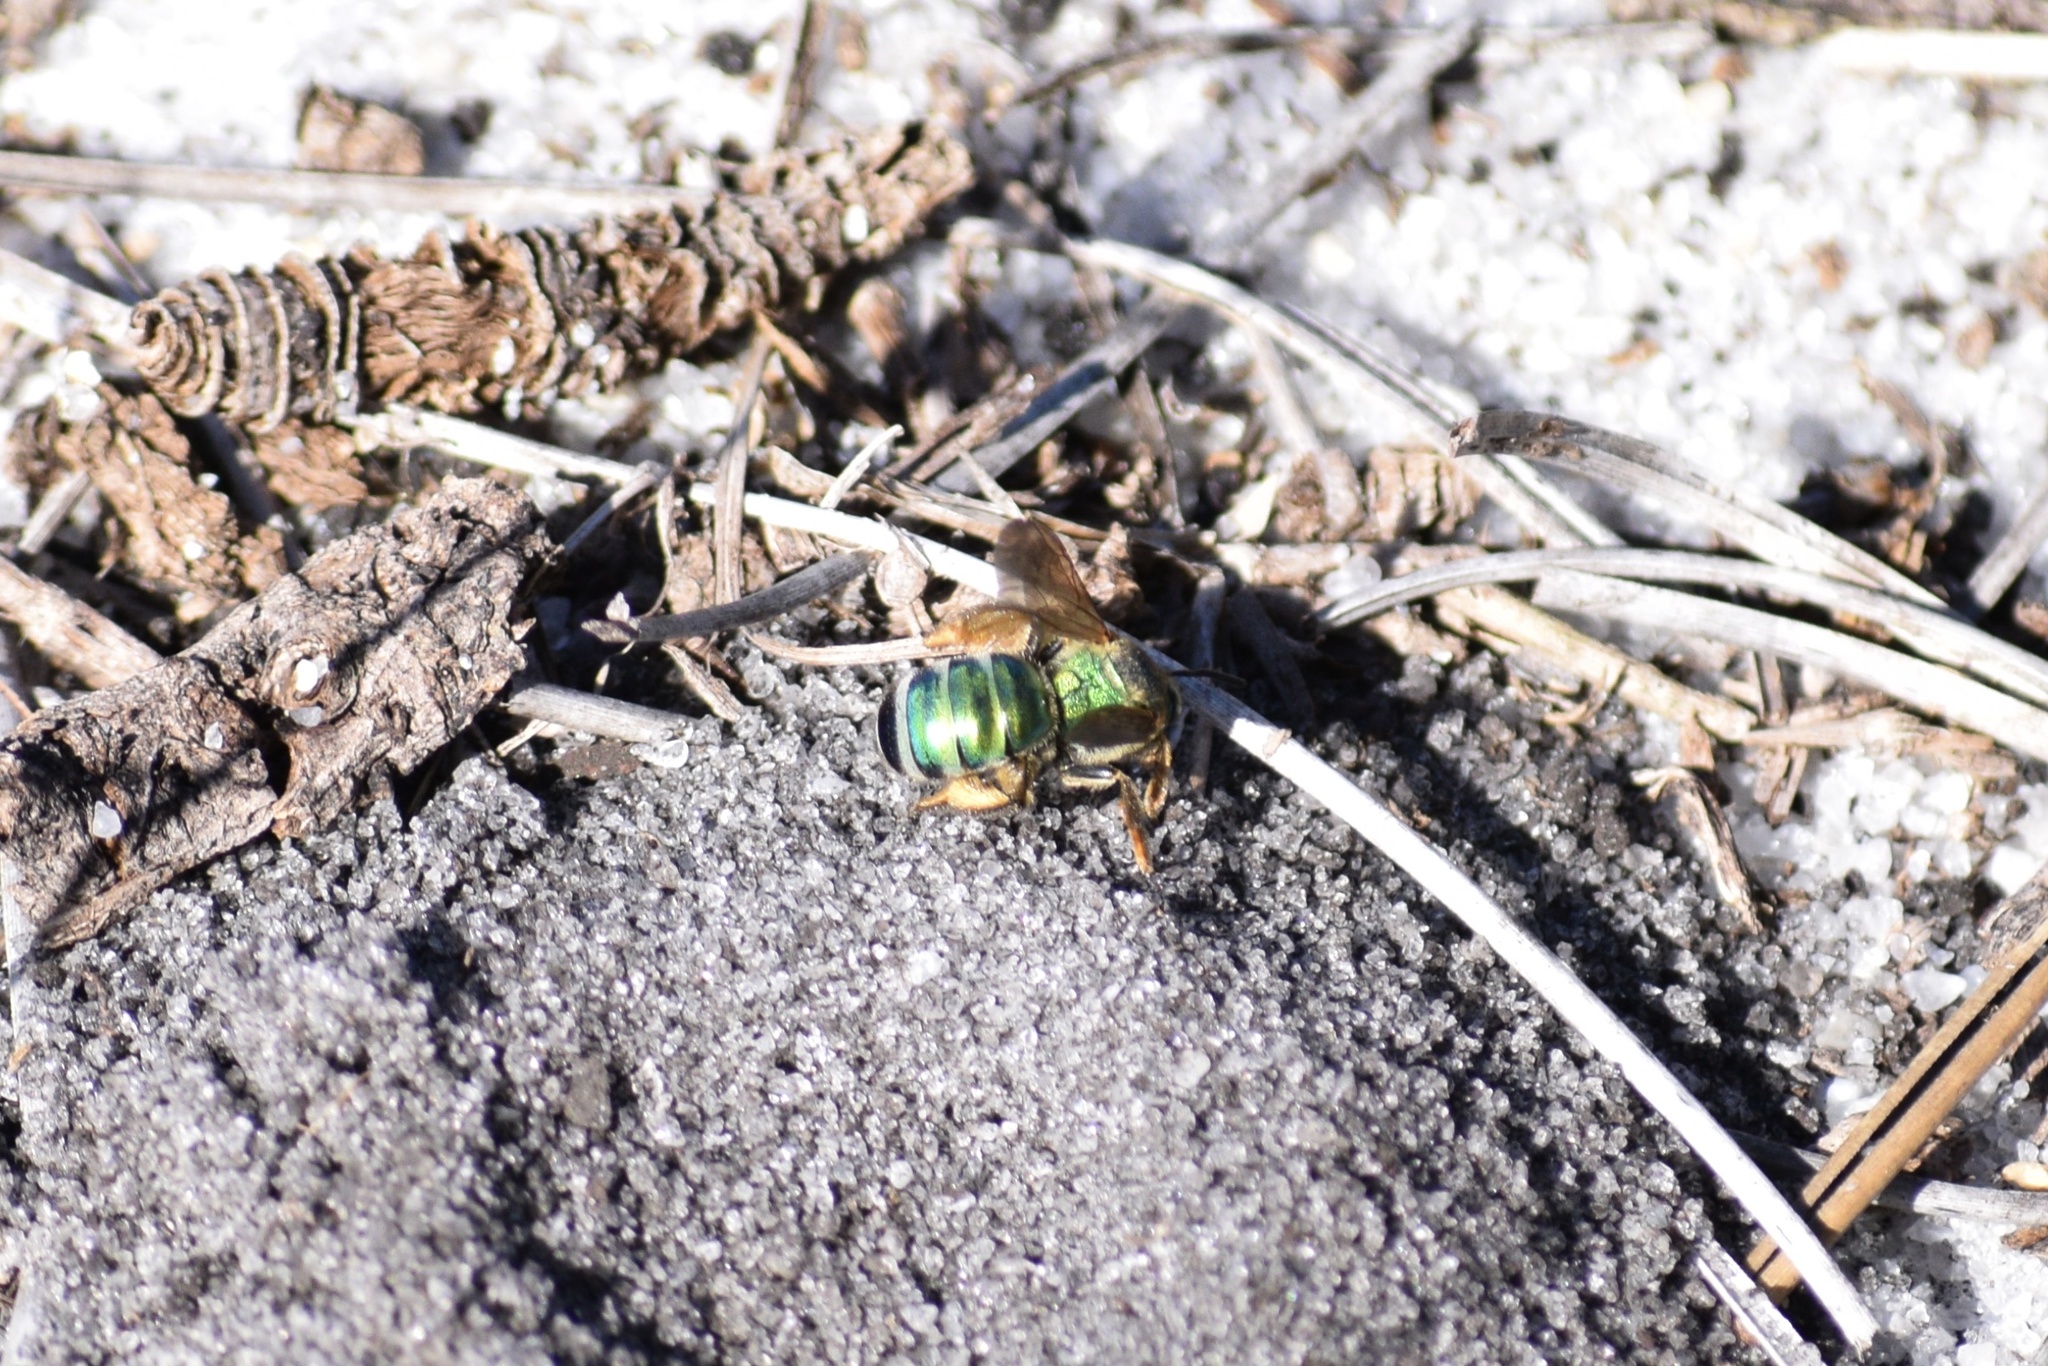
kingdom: Animalia
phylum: Arthropoda
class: Insecta
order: Hymenoptera
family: Halictidae
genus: Agapostemon
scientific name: Agapostemon splendens
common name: Brown-winged striped sweat bee
